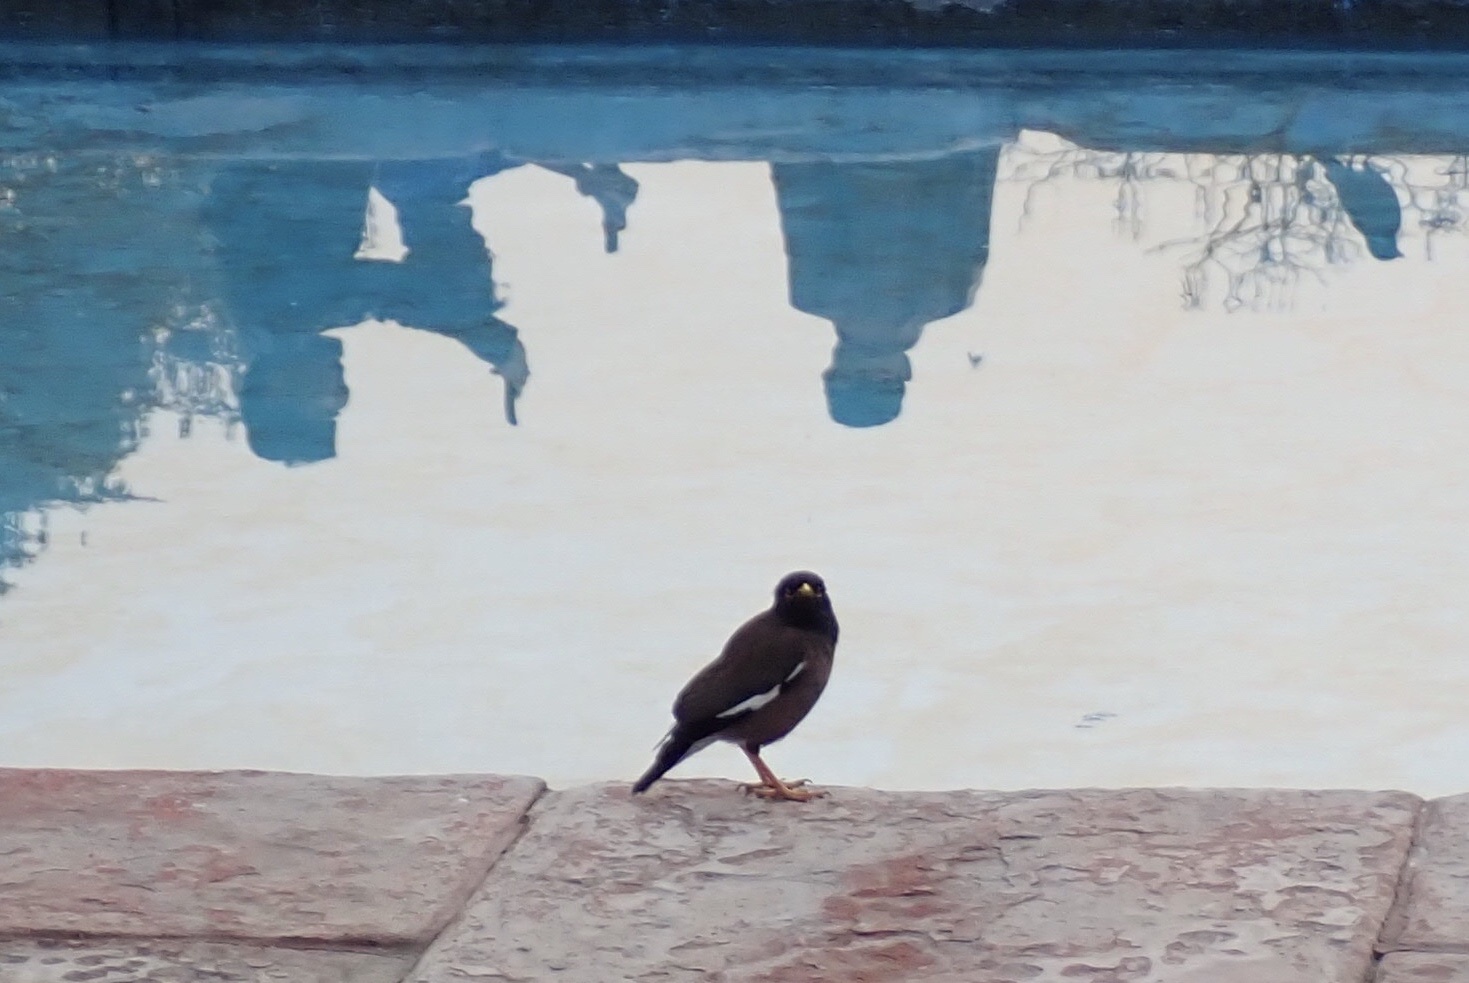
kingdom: Animalia
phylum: Chordata
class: Aves
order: Passeriformes
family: Sturnidae
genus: Acridotheres
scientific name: Acridotheres tristis
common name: Common myna
